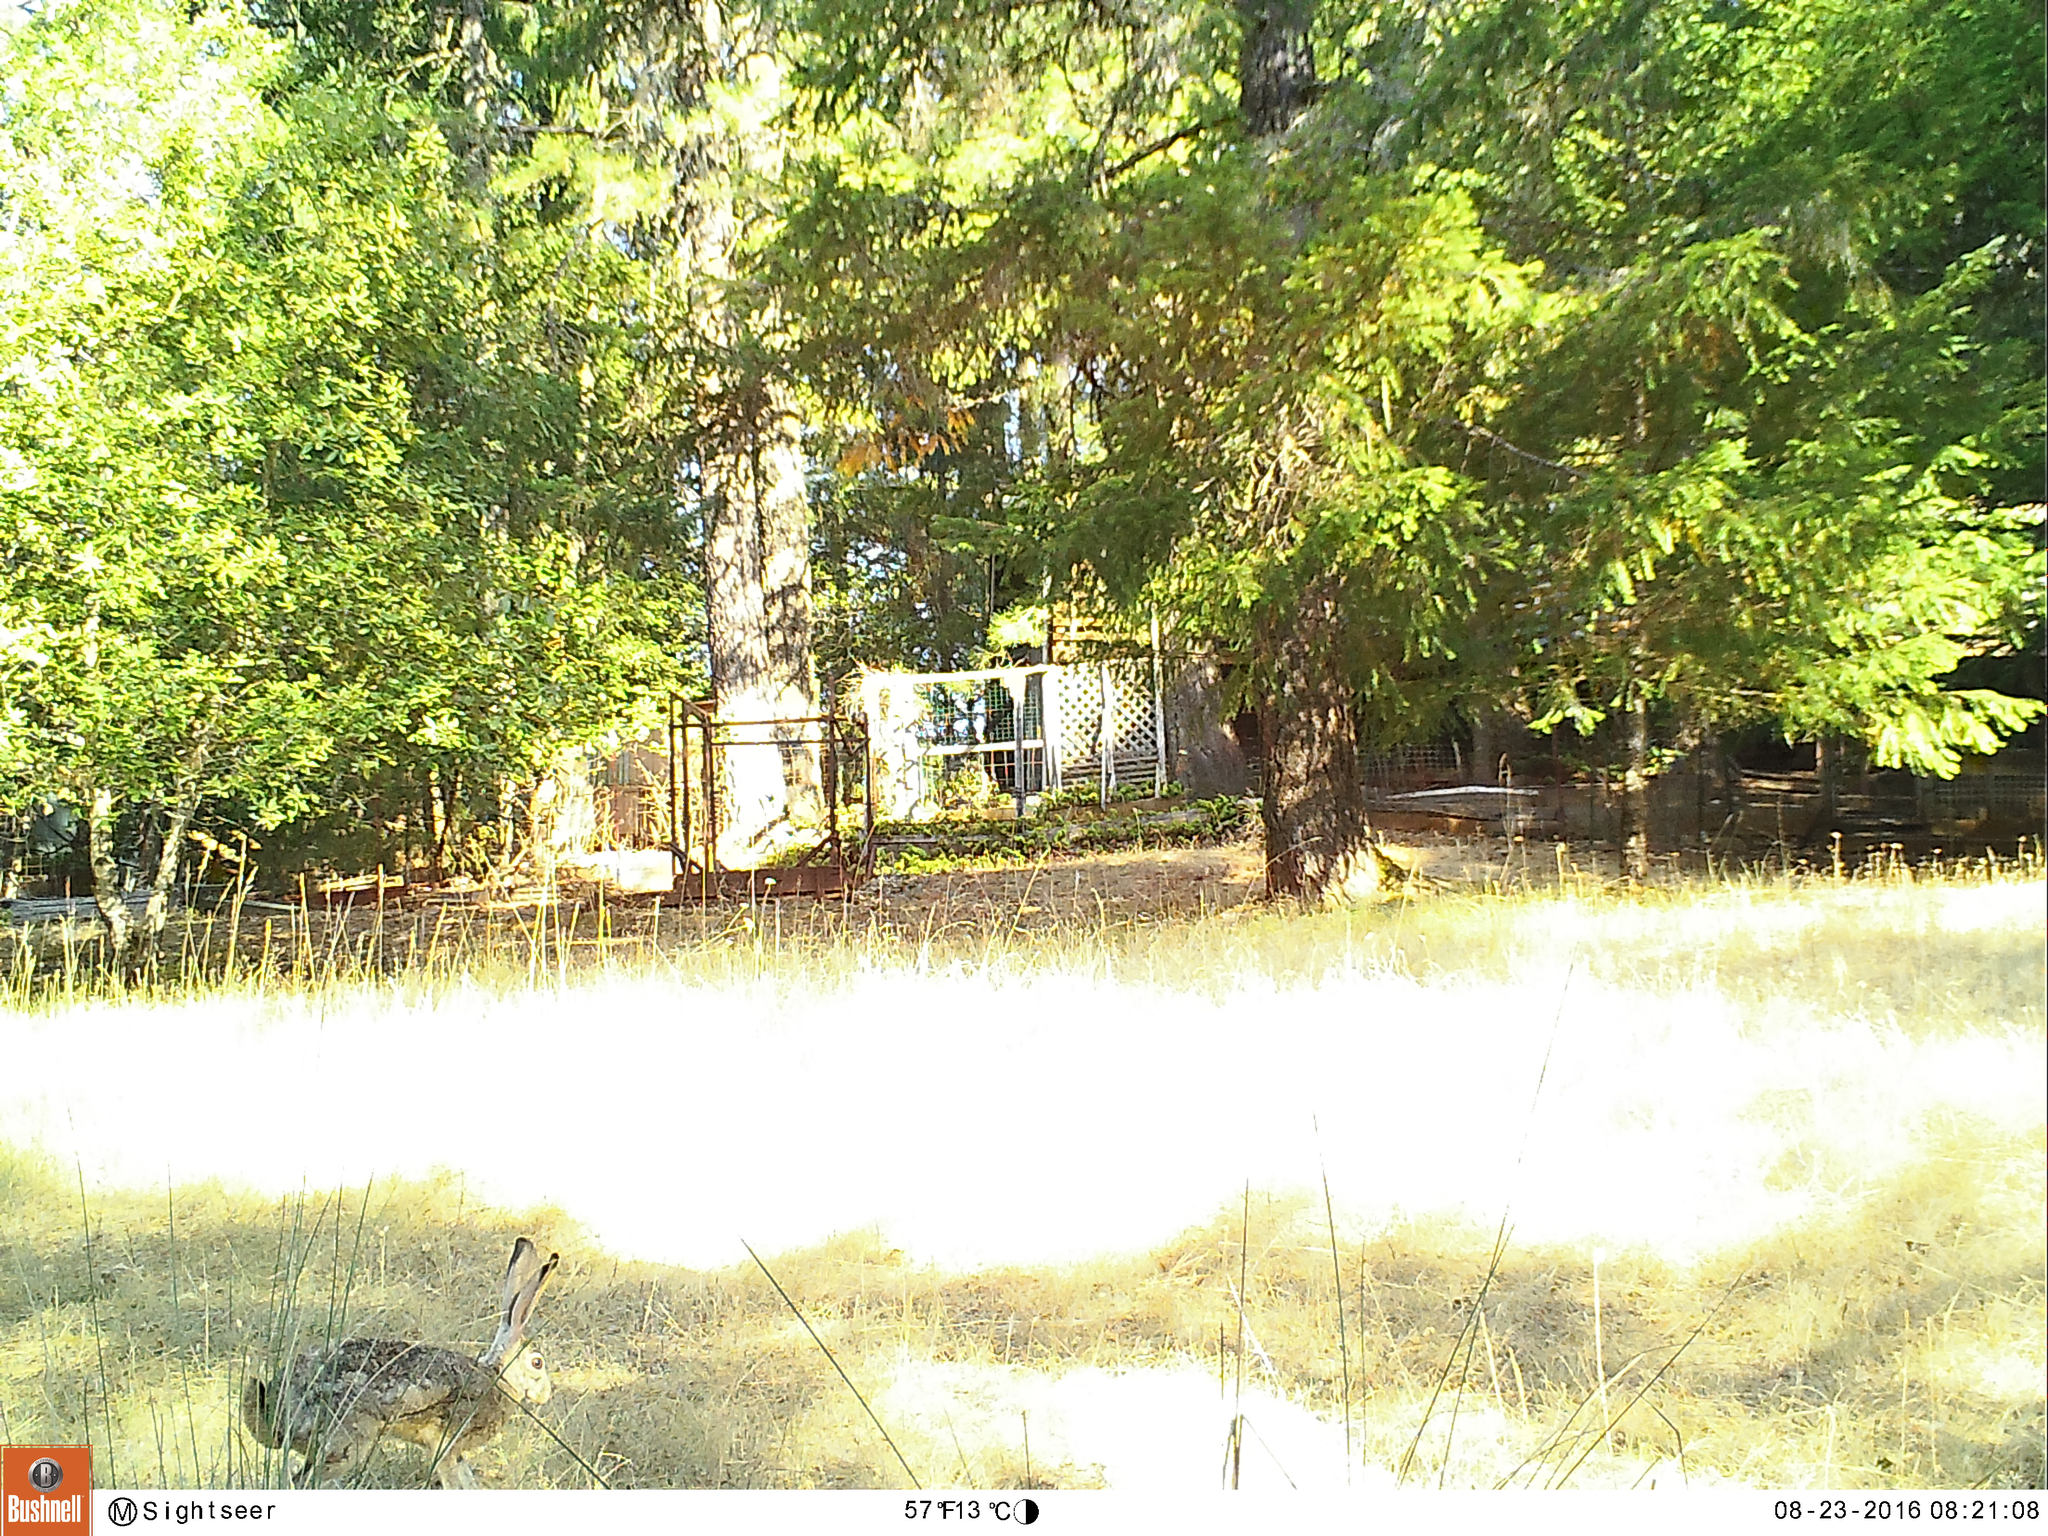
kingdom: Animalia
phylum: Chordata
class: Mammalia
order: Lagomorpha
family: Leporidae
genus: Lepus
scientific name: Lepus californicus
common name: Black-tailed jackrabbit
